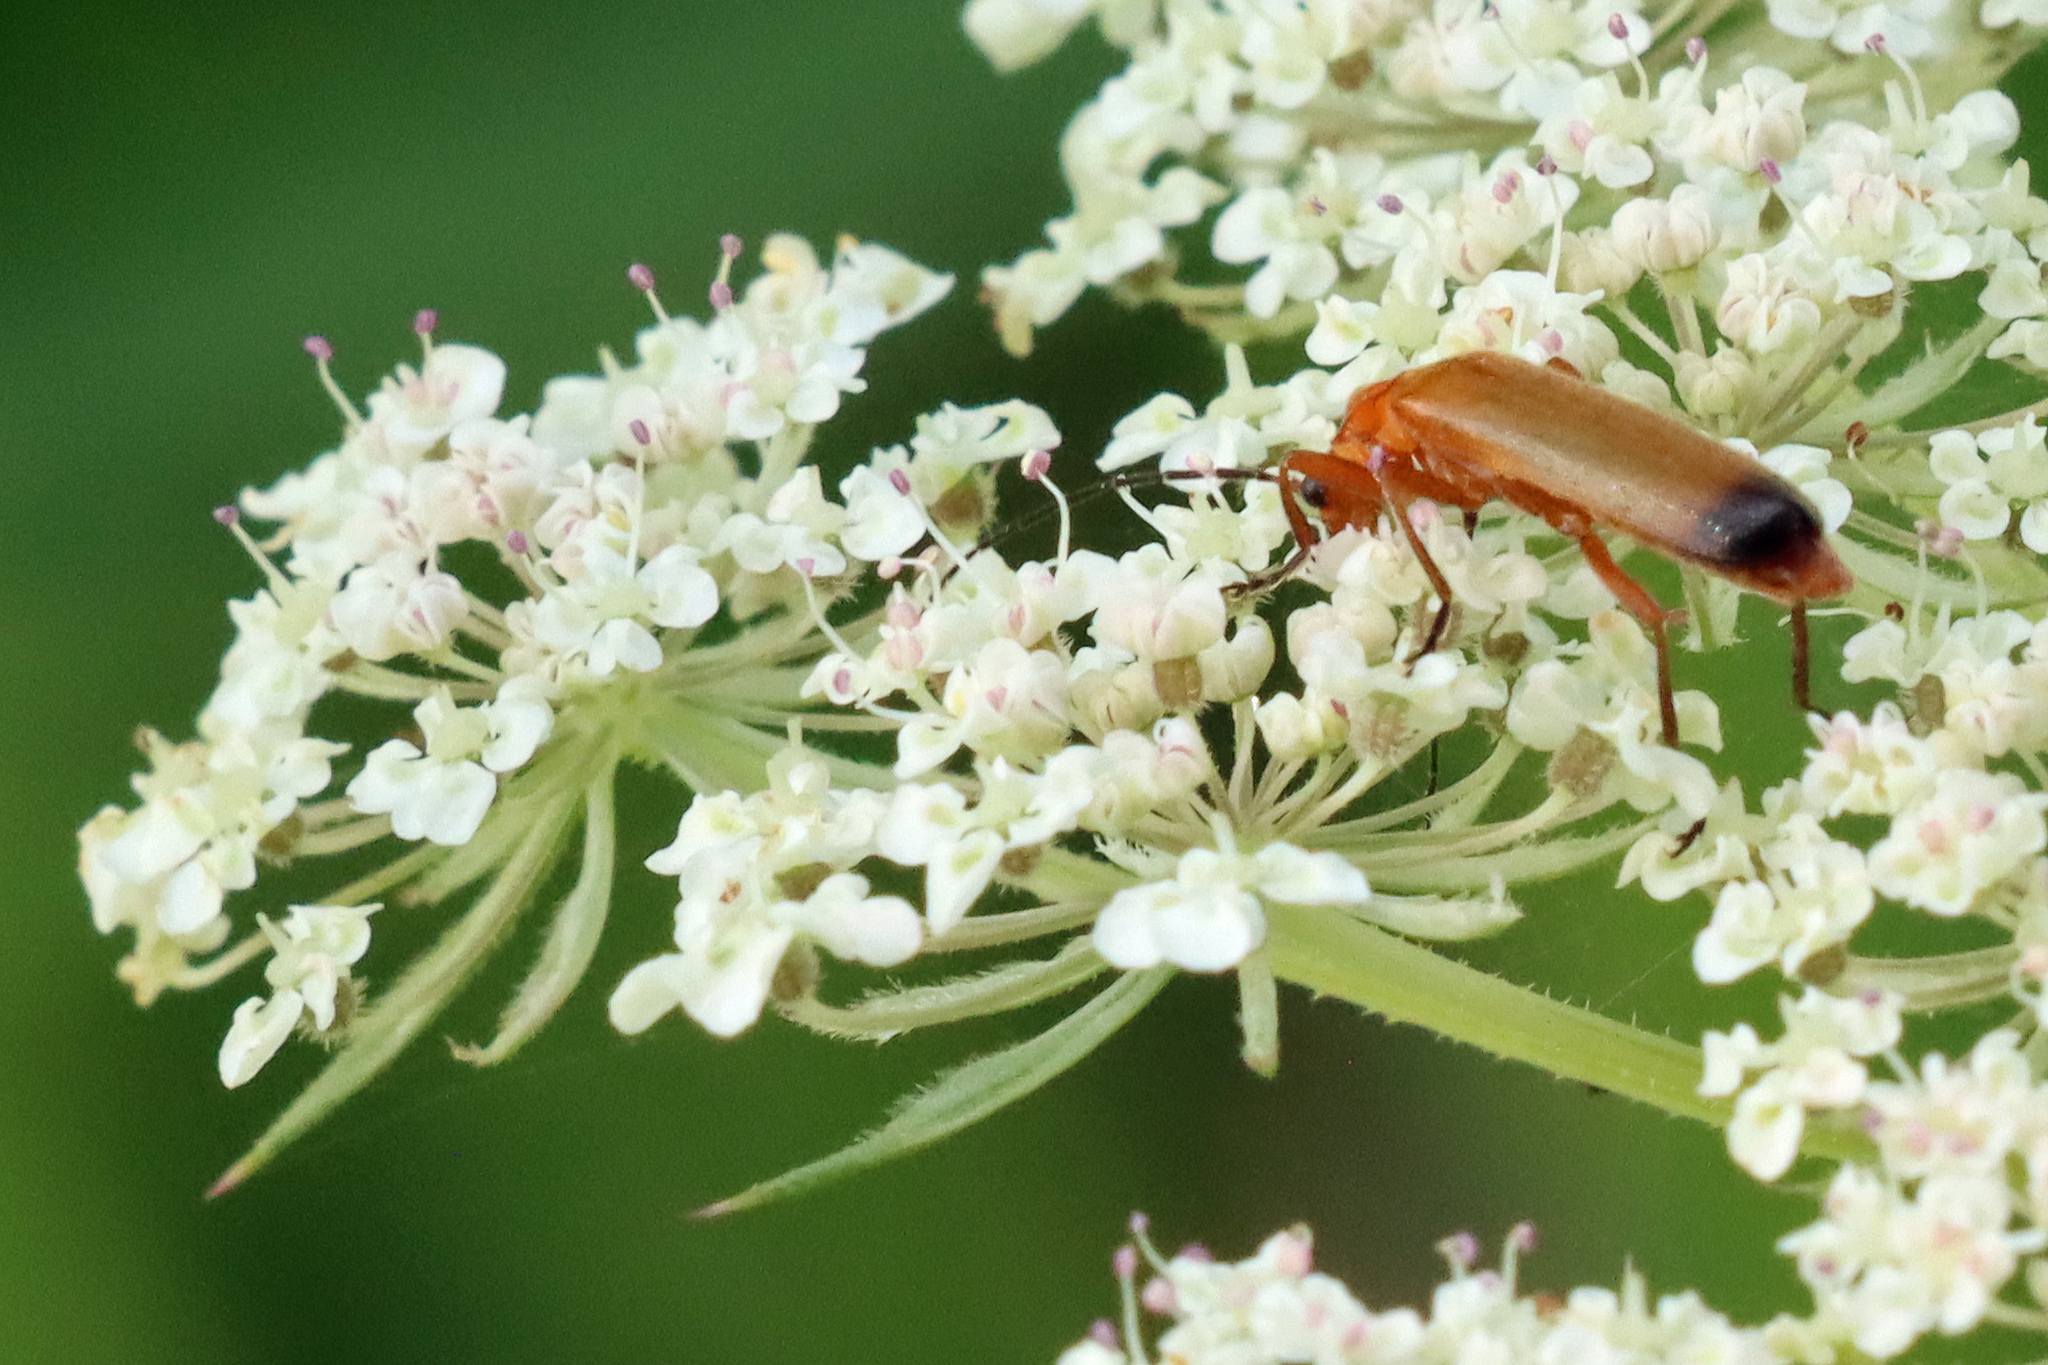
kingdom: Animalia
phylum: Arthropoda
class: Insecta
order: Coleoptera
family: Cantharidae
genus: Rhagonycha
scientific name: Rhagonycha fulva
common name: Common red soldier beetle
